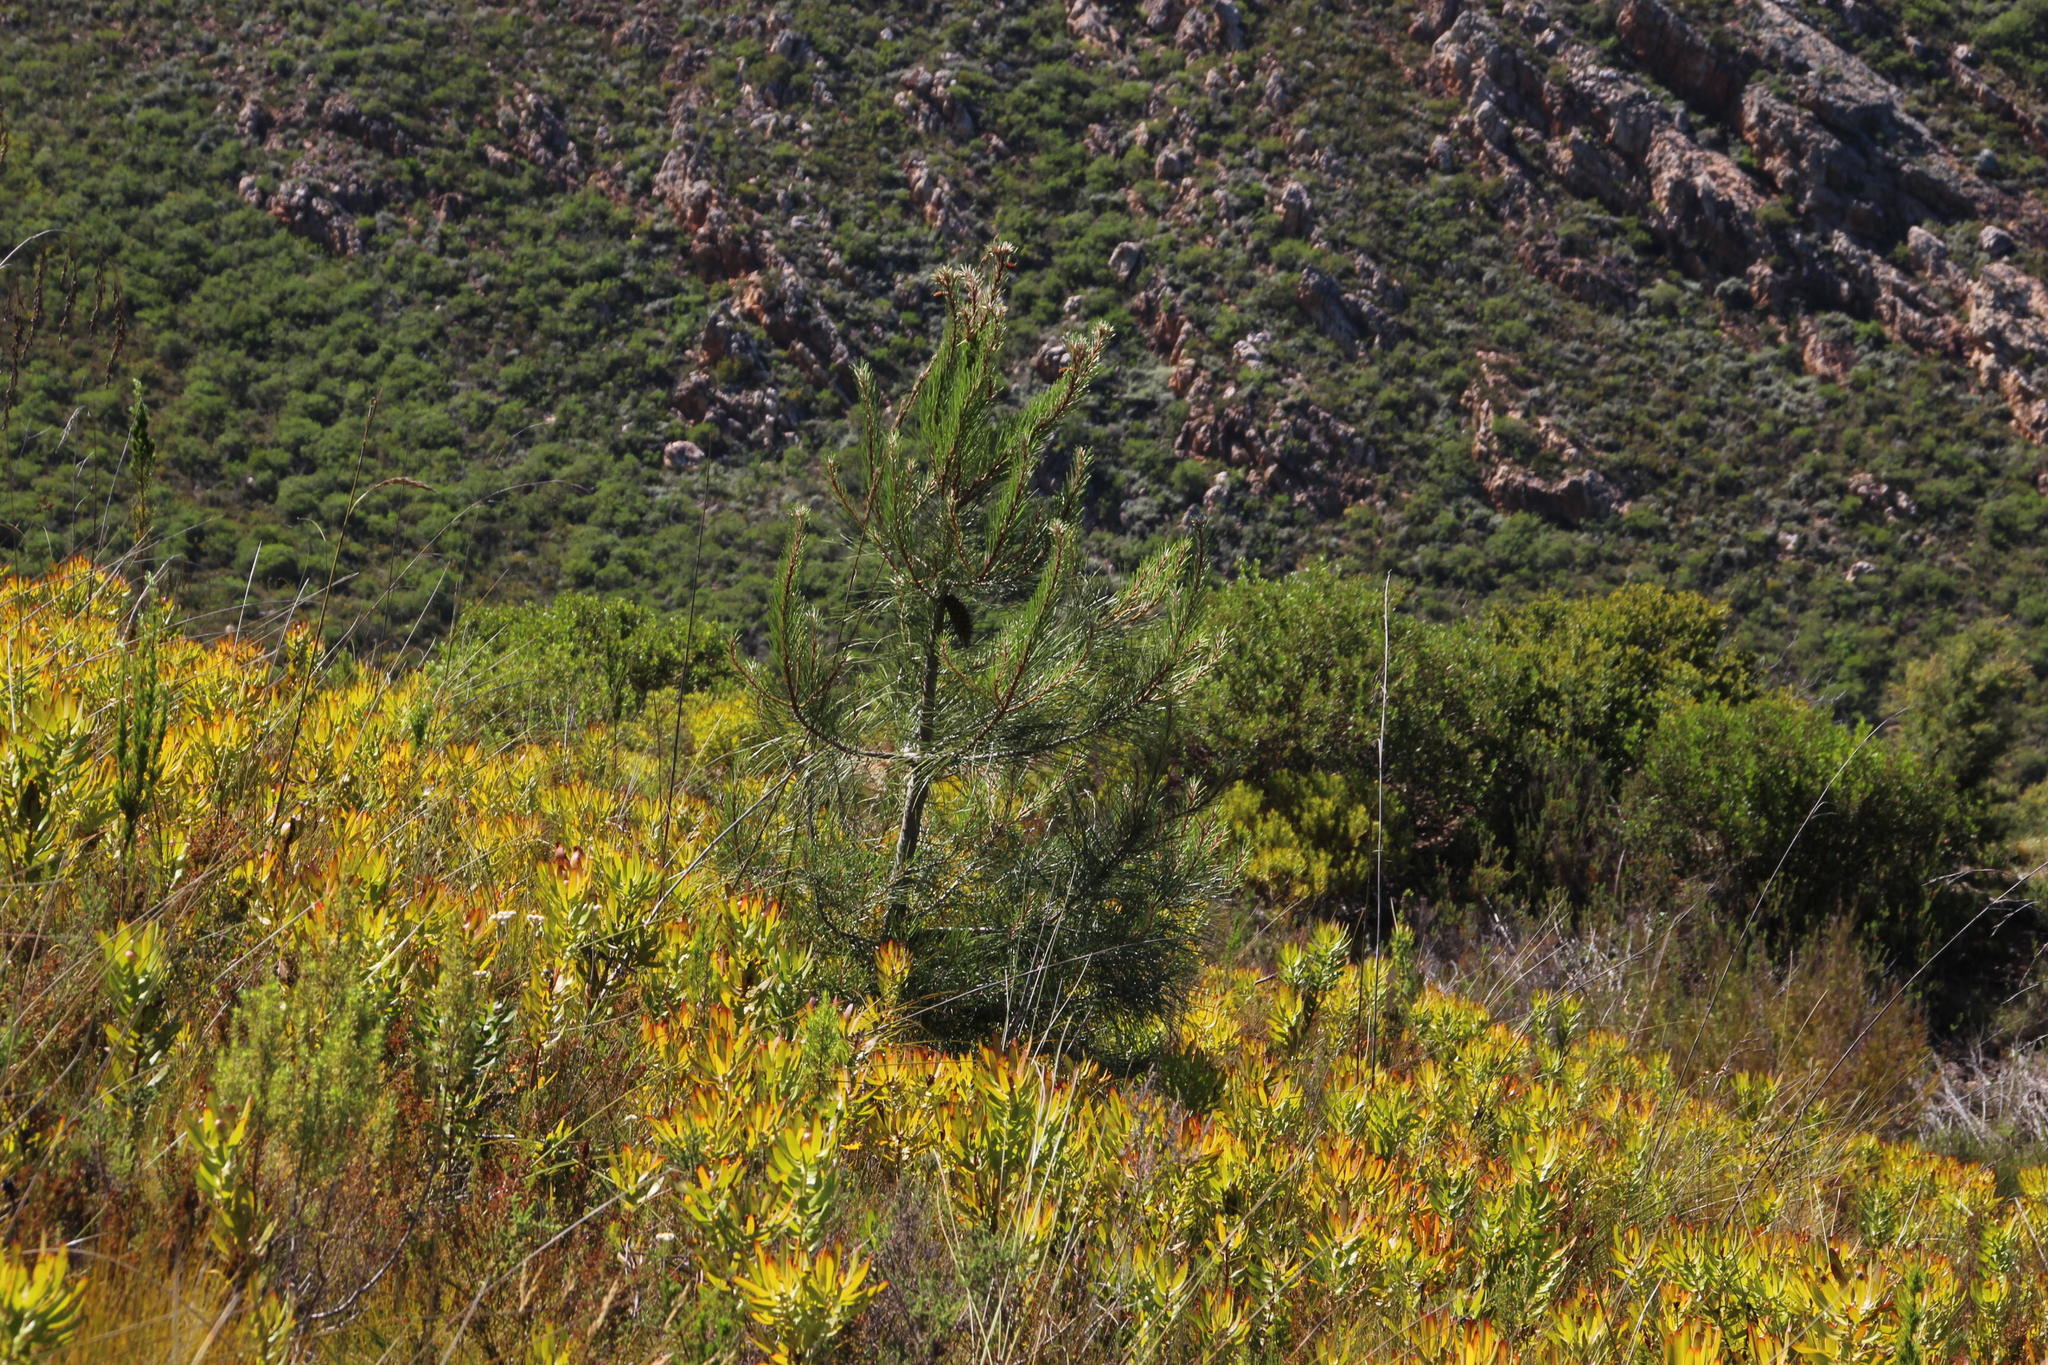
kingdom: Plantae
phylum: Tracheophyta
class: Pinopsida
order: Pinales
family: Pinaceae
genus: Pinus
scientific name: Pinus pinaster
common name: Maritime pine
